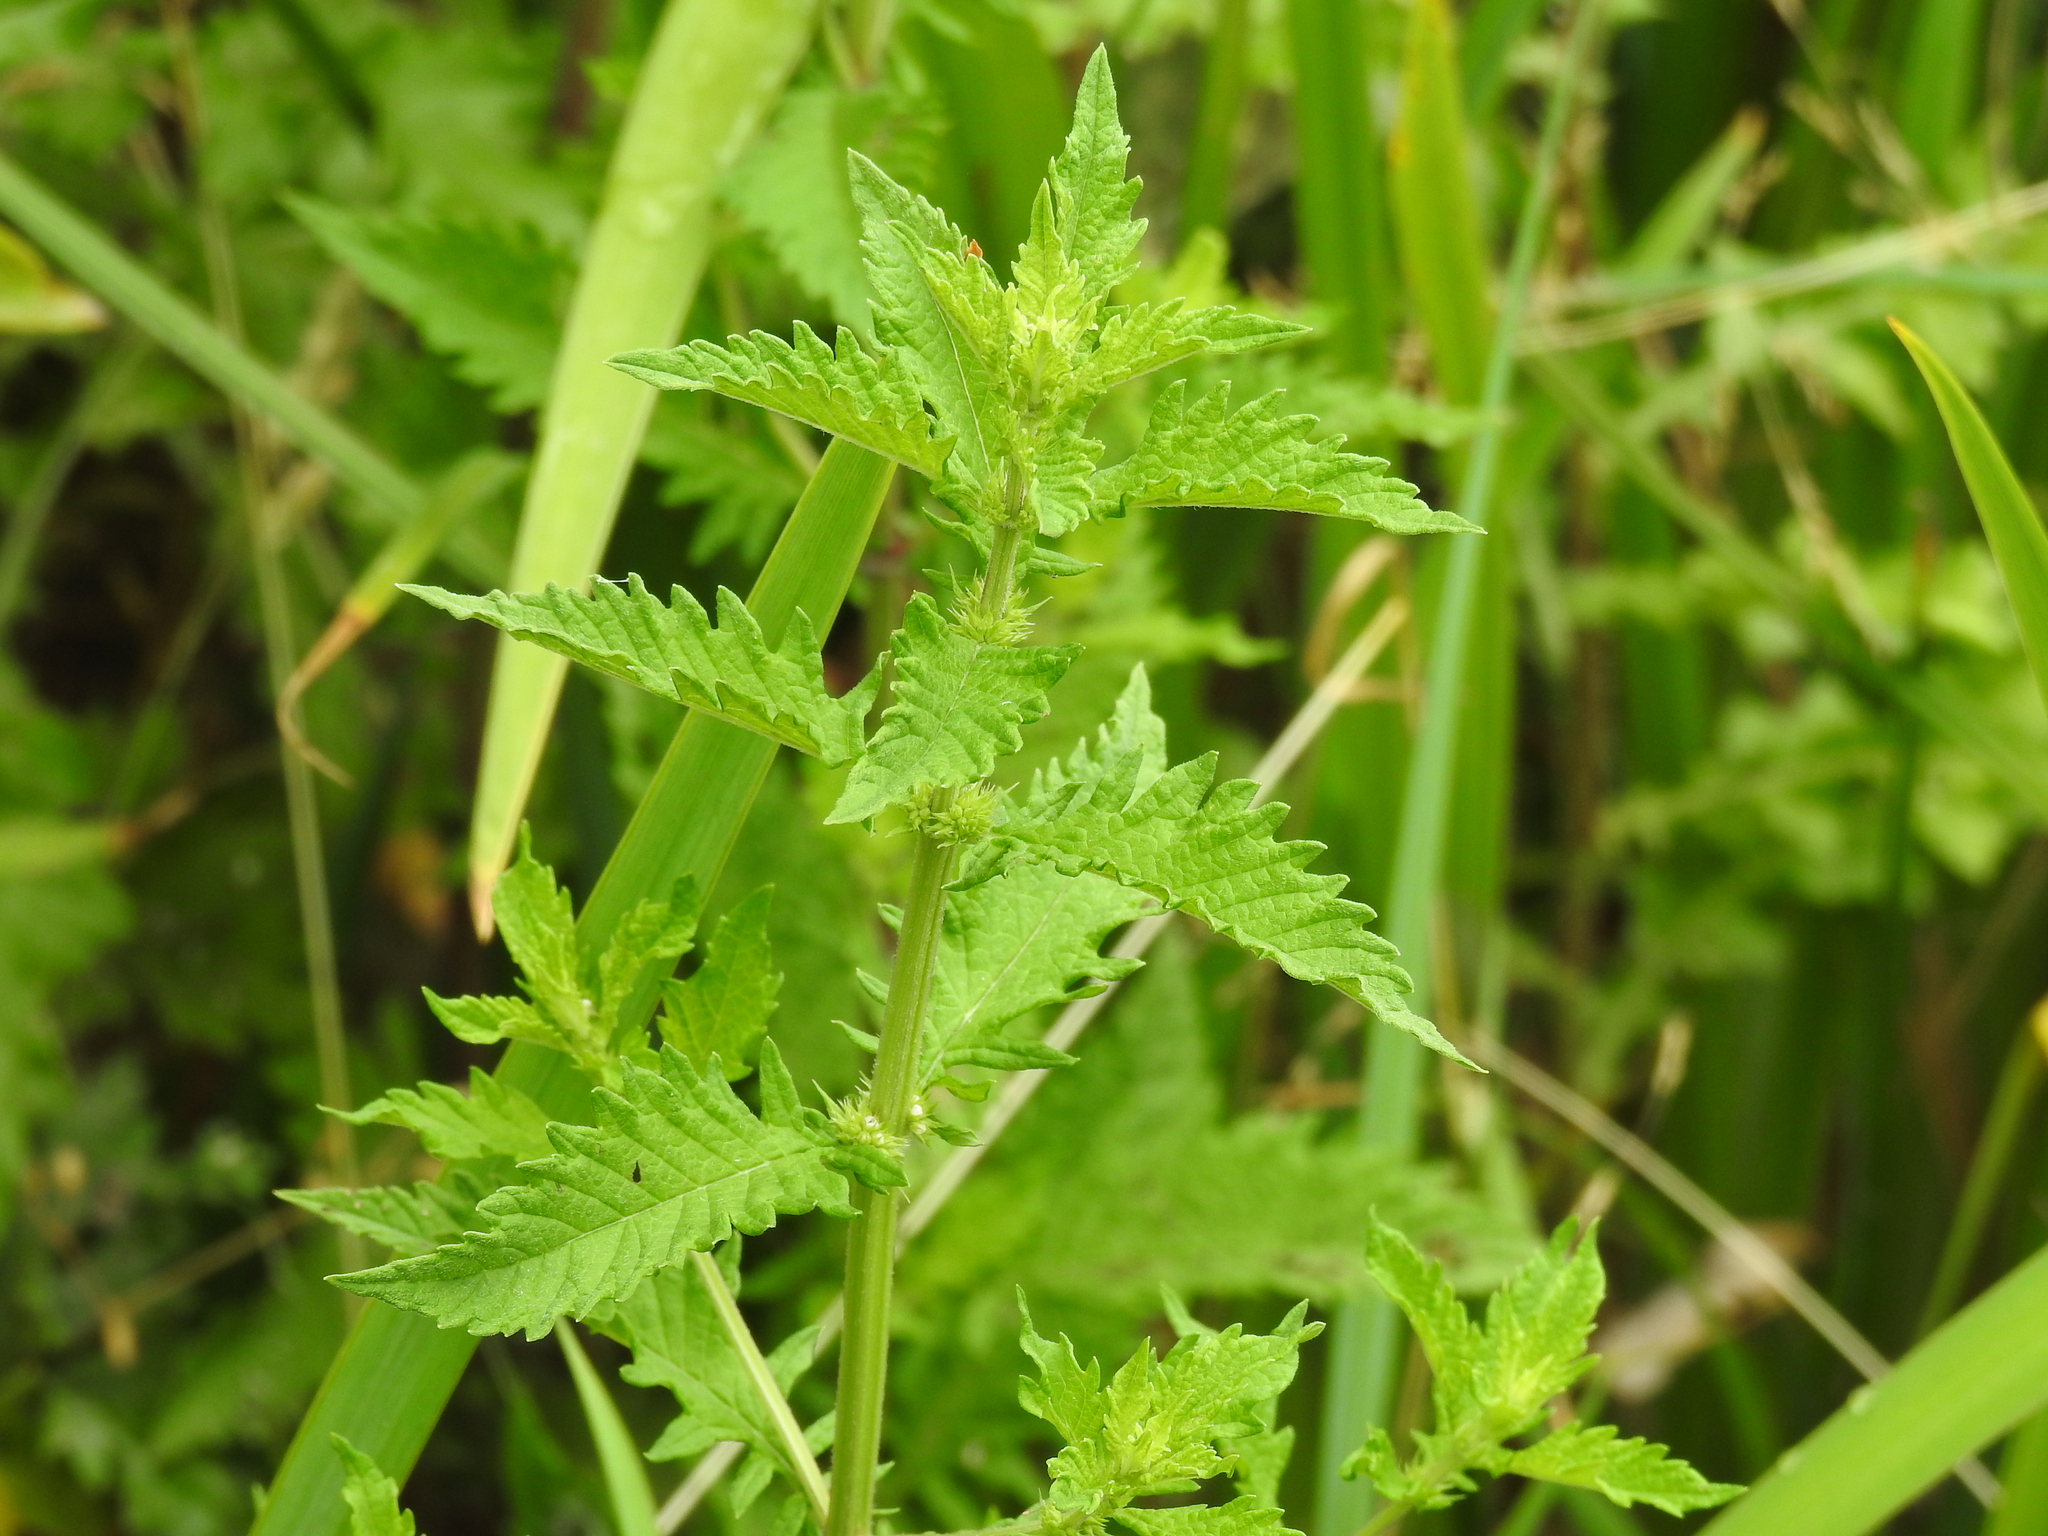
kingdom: Plantae
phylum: Tracheophyta
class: Magnoliopsida
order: Lamiales
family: Lamiaceae
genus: Lycopus
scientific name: Lycopus europaeus
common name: European bugleweed
